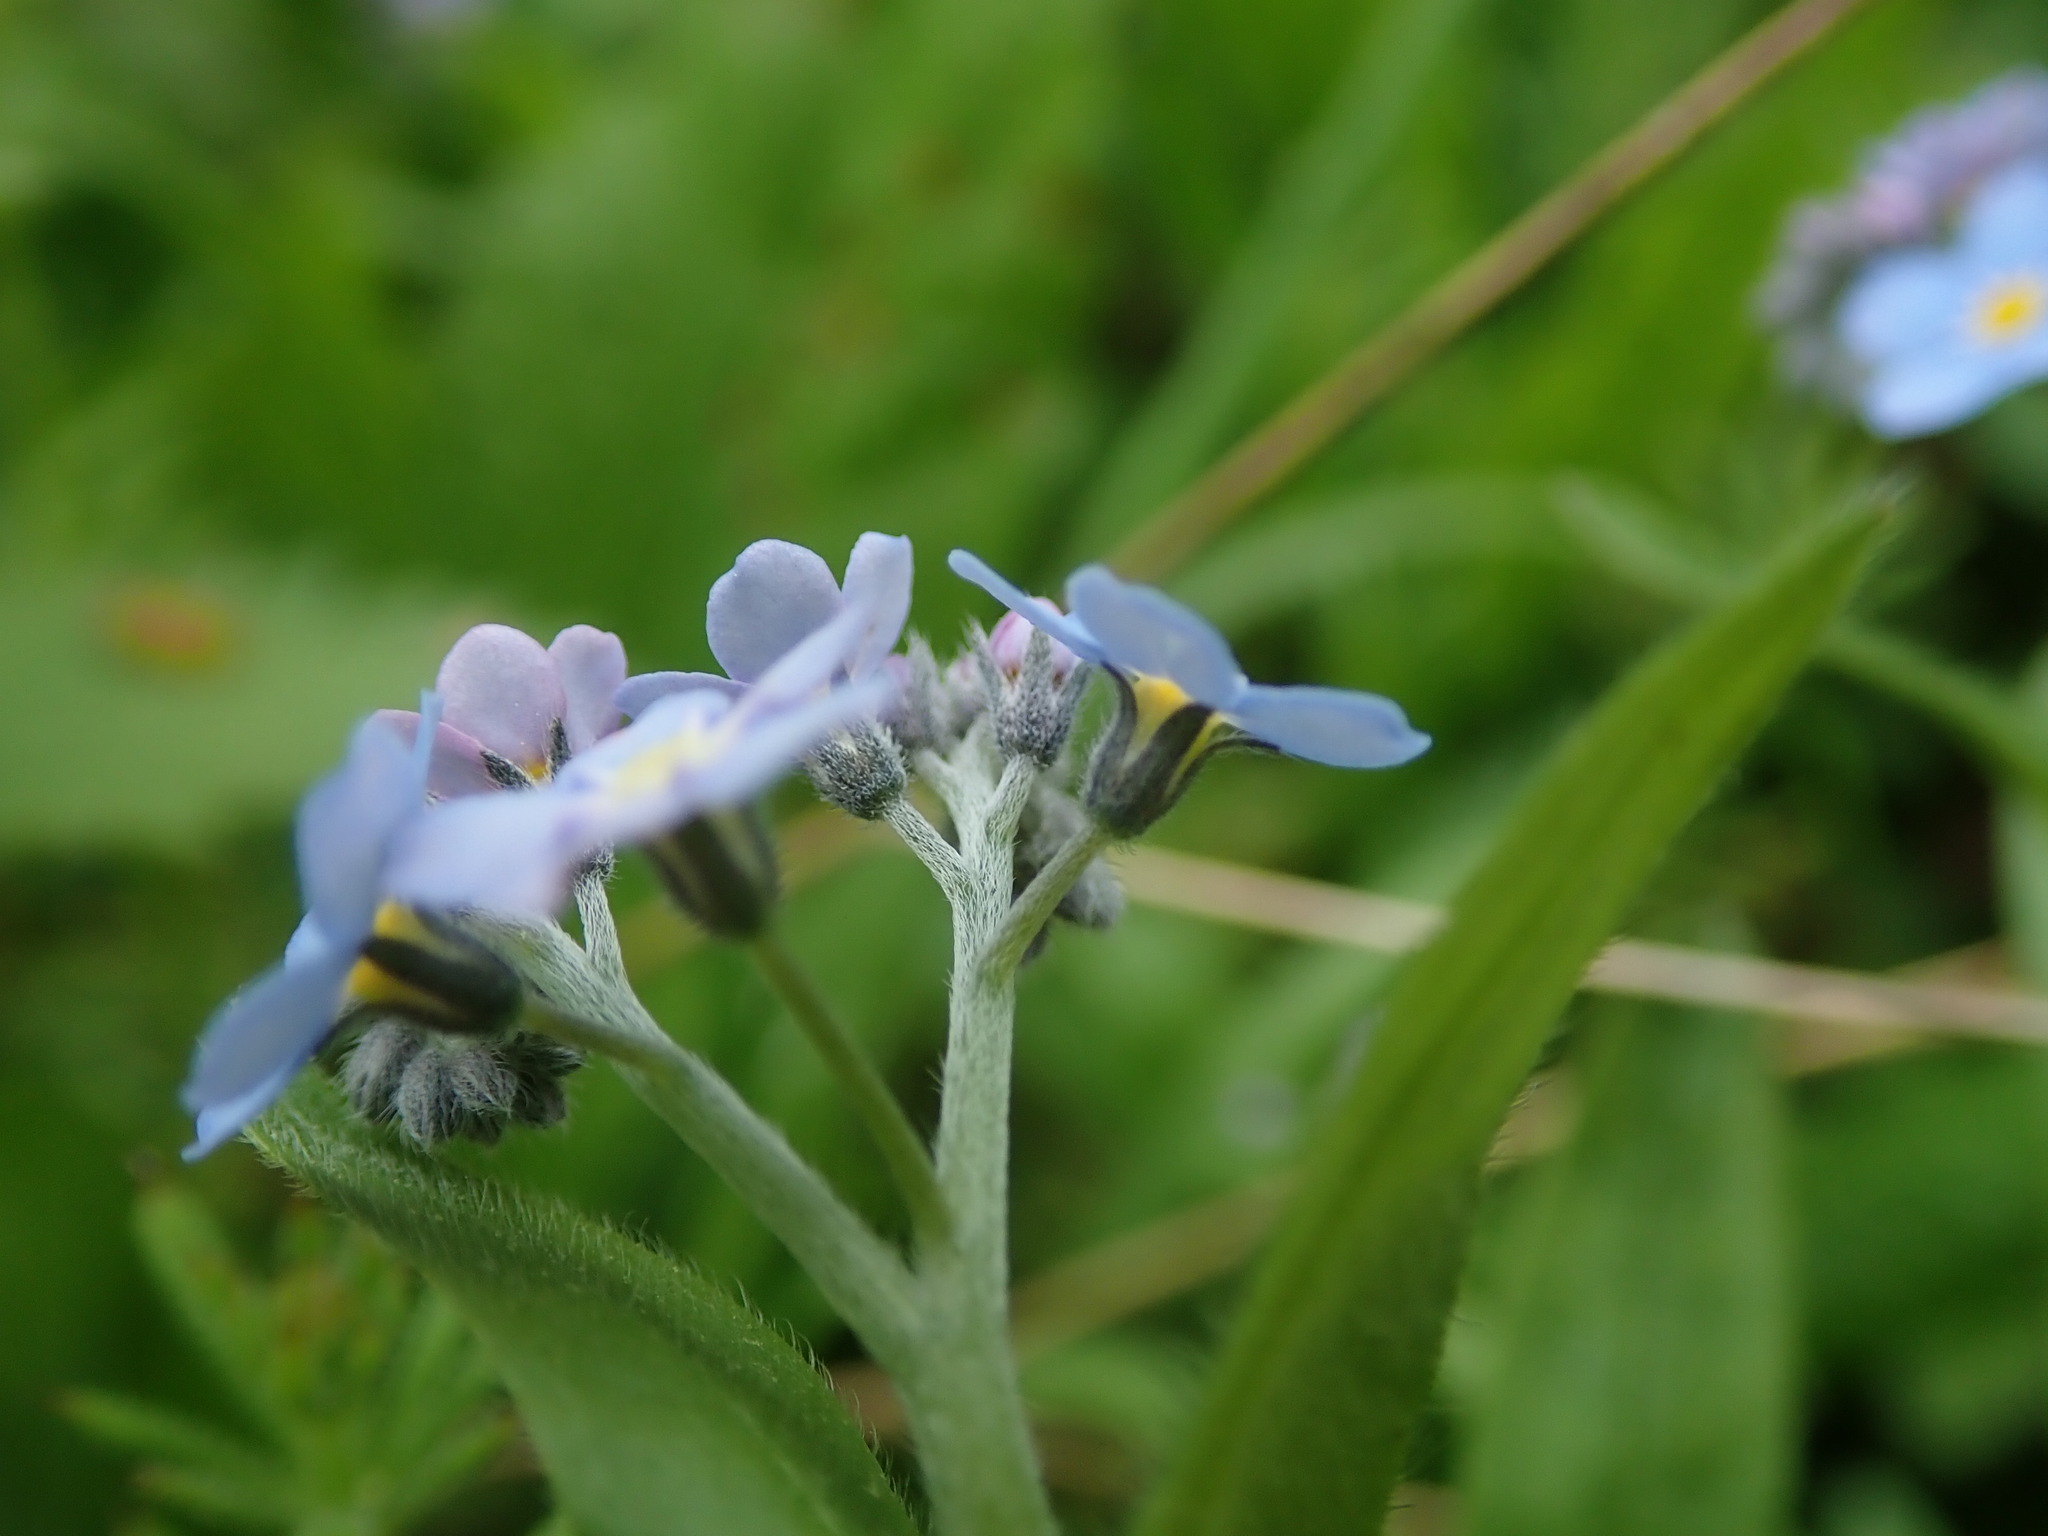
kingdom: Plantae
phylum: Tracheophyta
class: Magnoliopsida
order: Boraginales
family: Boraginaceae
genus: Myosotis
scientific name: Myosotis sylvatica
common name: Wood forget-me-not
